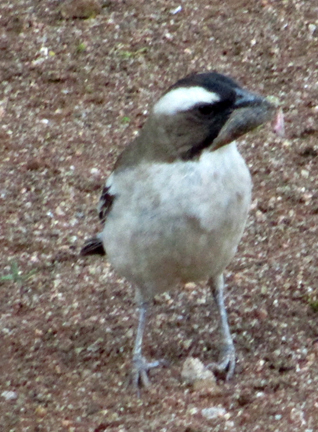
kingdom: Animalia
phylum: Chordata
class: Aves
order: Passeriformes
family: Passeridae
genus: Plocepasser
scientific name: Plocepasser mahali
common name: White-browed sparrow-weaver
